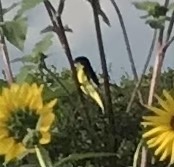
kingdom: Animalia
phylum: Chordata
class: Aves
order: Passeriformes
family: Fringillidae
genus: Spinus
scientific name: Spinus psaltria
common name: Lesser goldfinch
